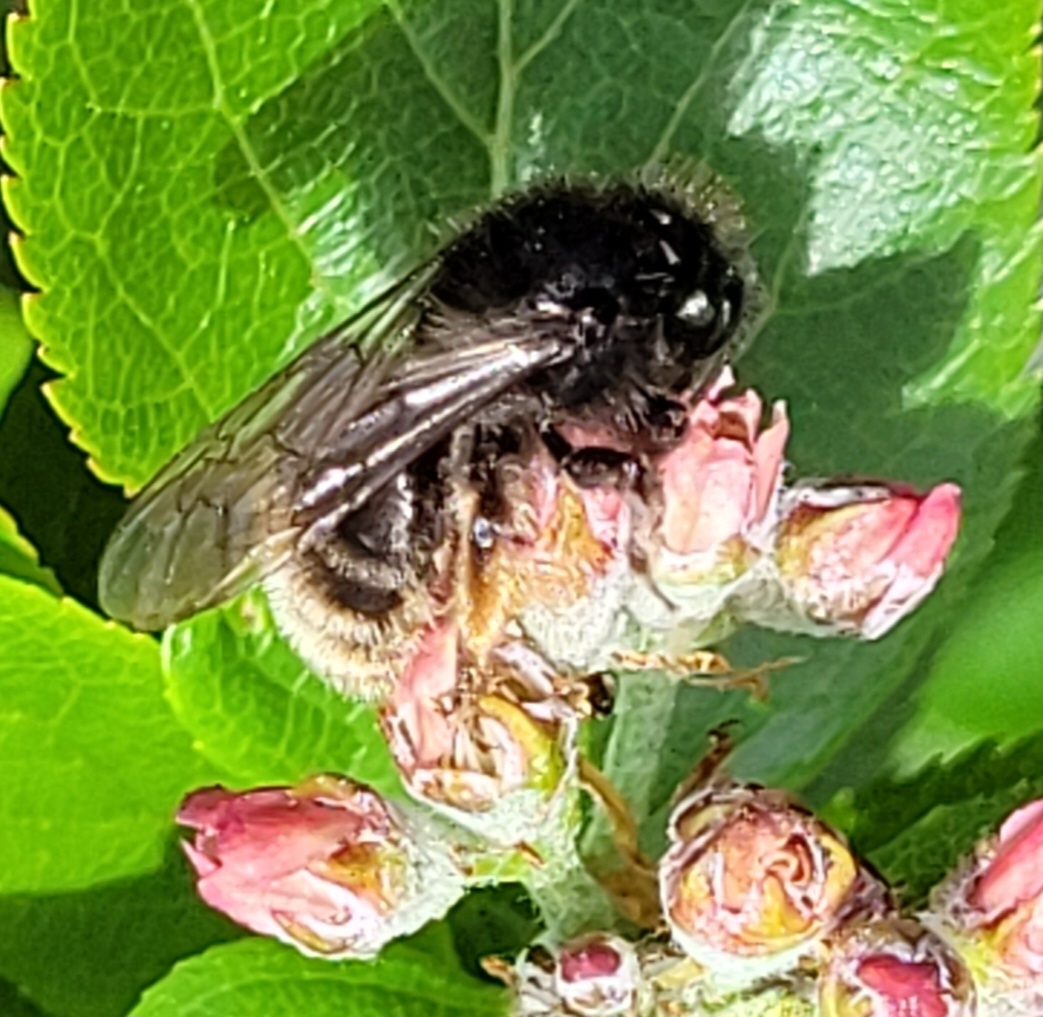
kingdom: Animalia
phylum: Arthropoda
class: Insecta
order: Hymenoptera
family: Andrenidae
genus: Andrena
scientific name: Andrena rogenhoferi
